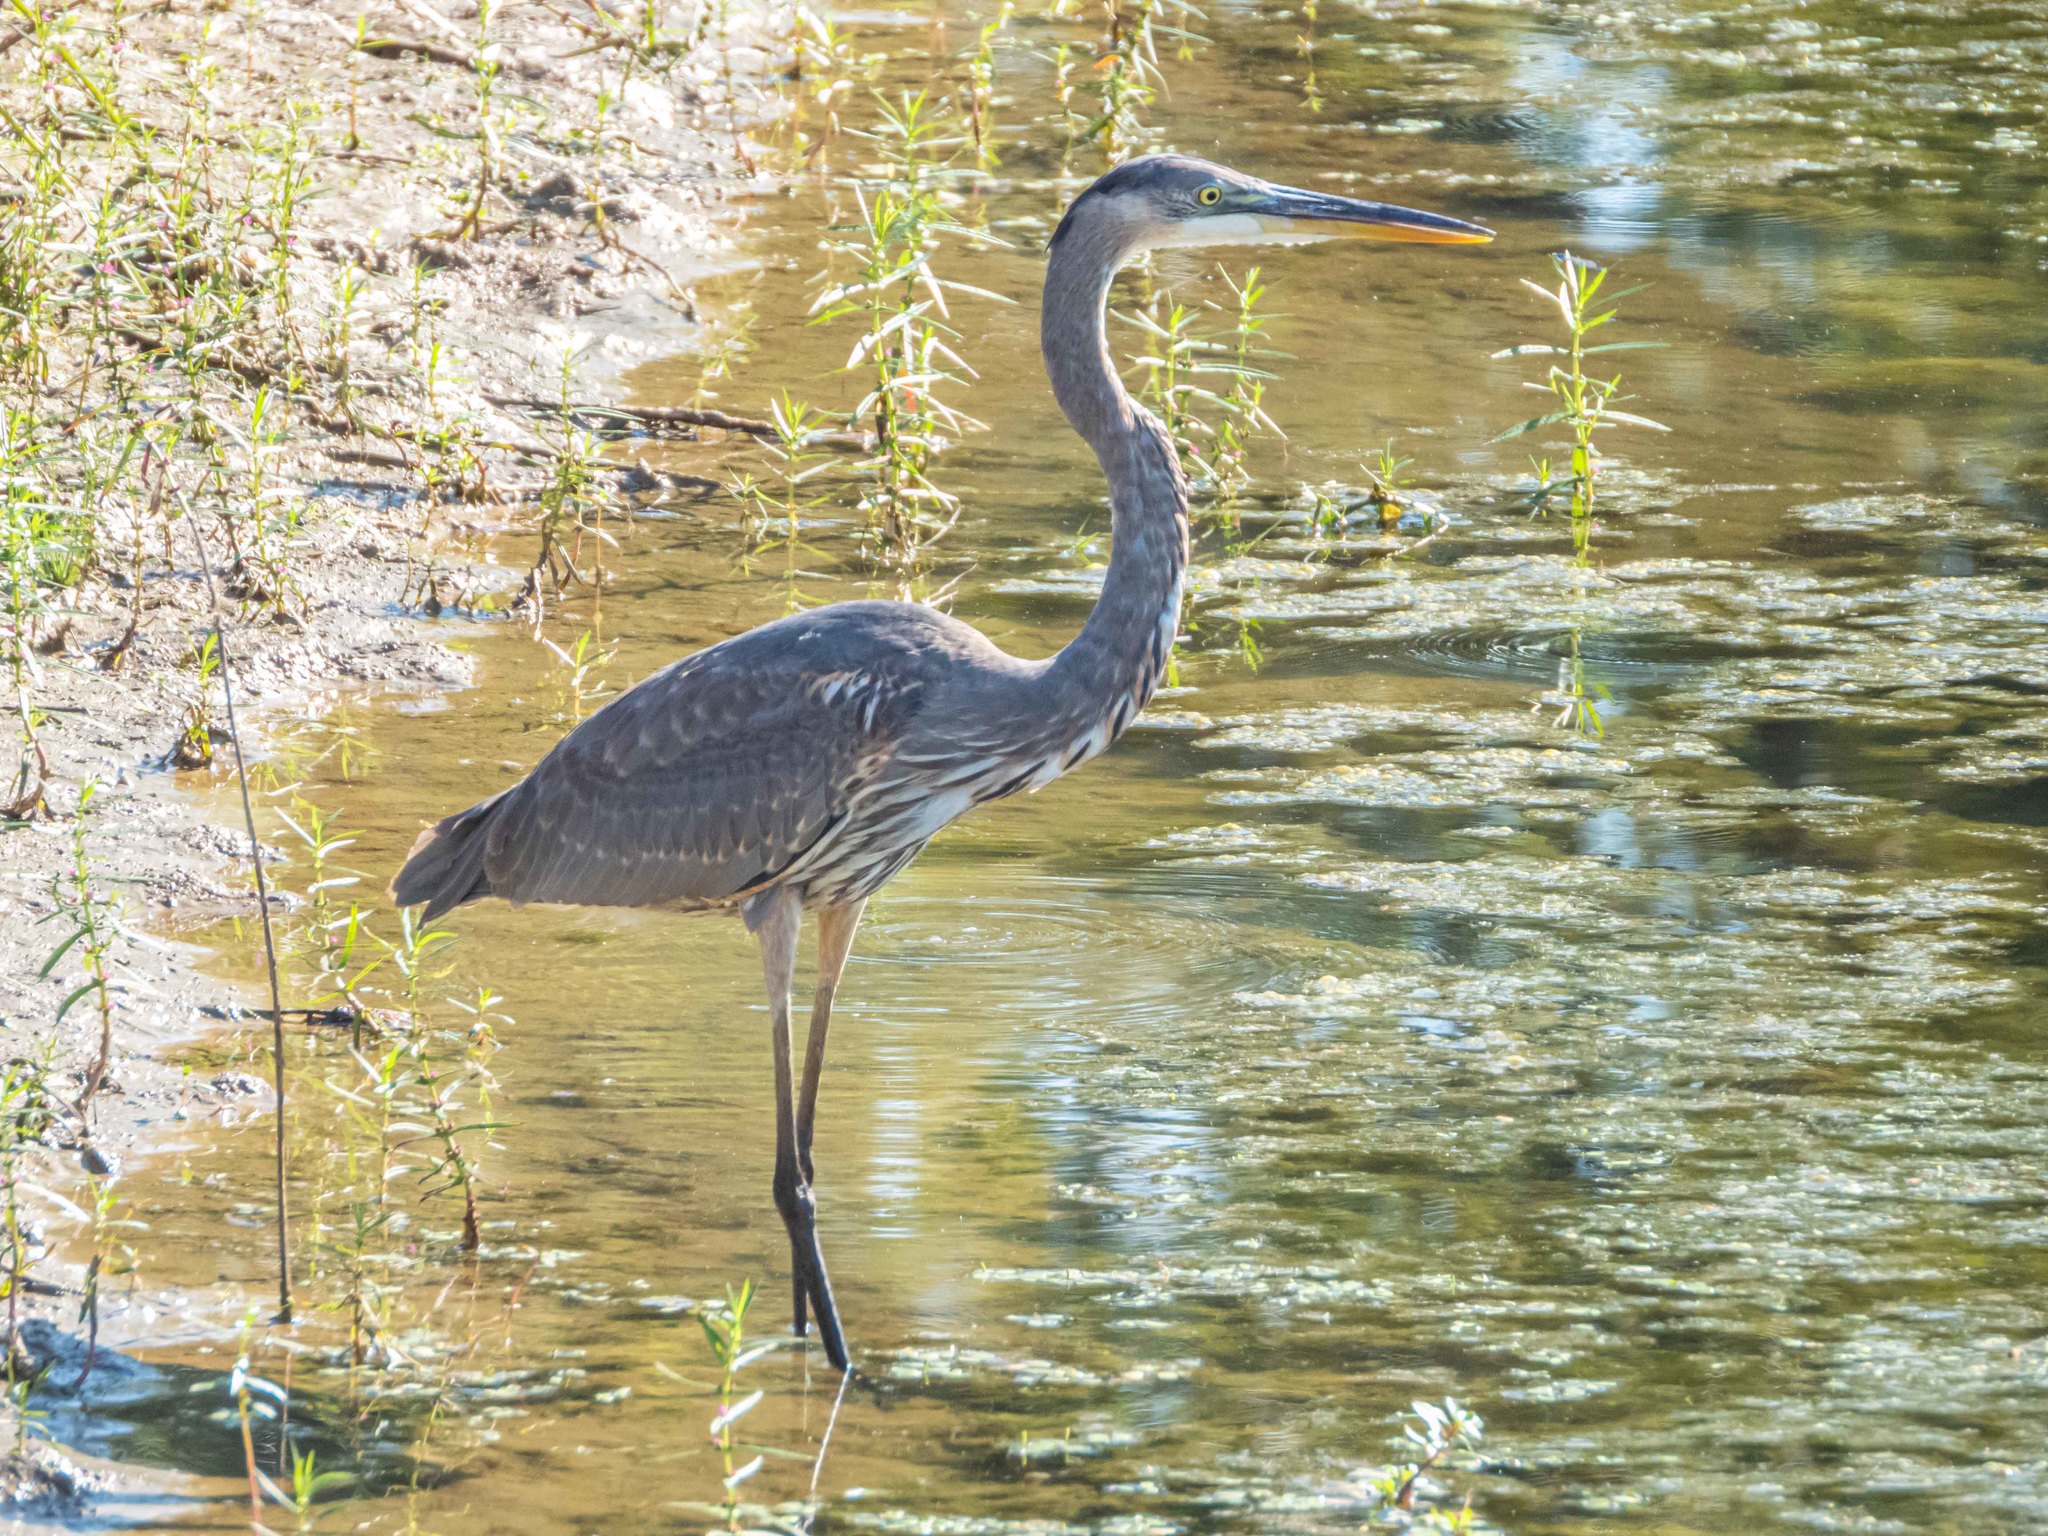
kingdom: Animalia
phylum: Chordata
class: Aves
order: Pelecaniformes
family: Ardeidae
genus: Ardea
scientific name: Ardea herodias
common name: Great blue heron
